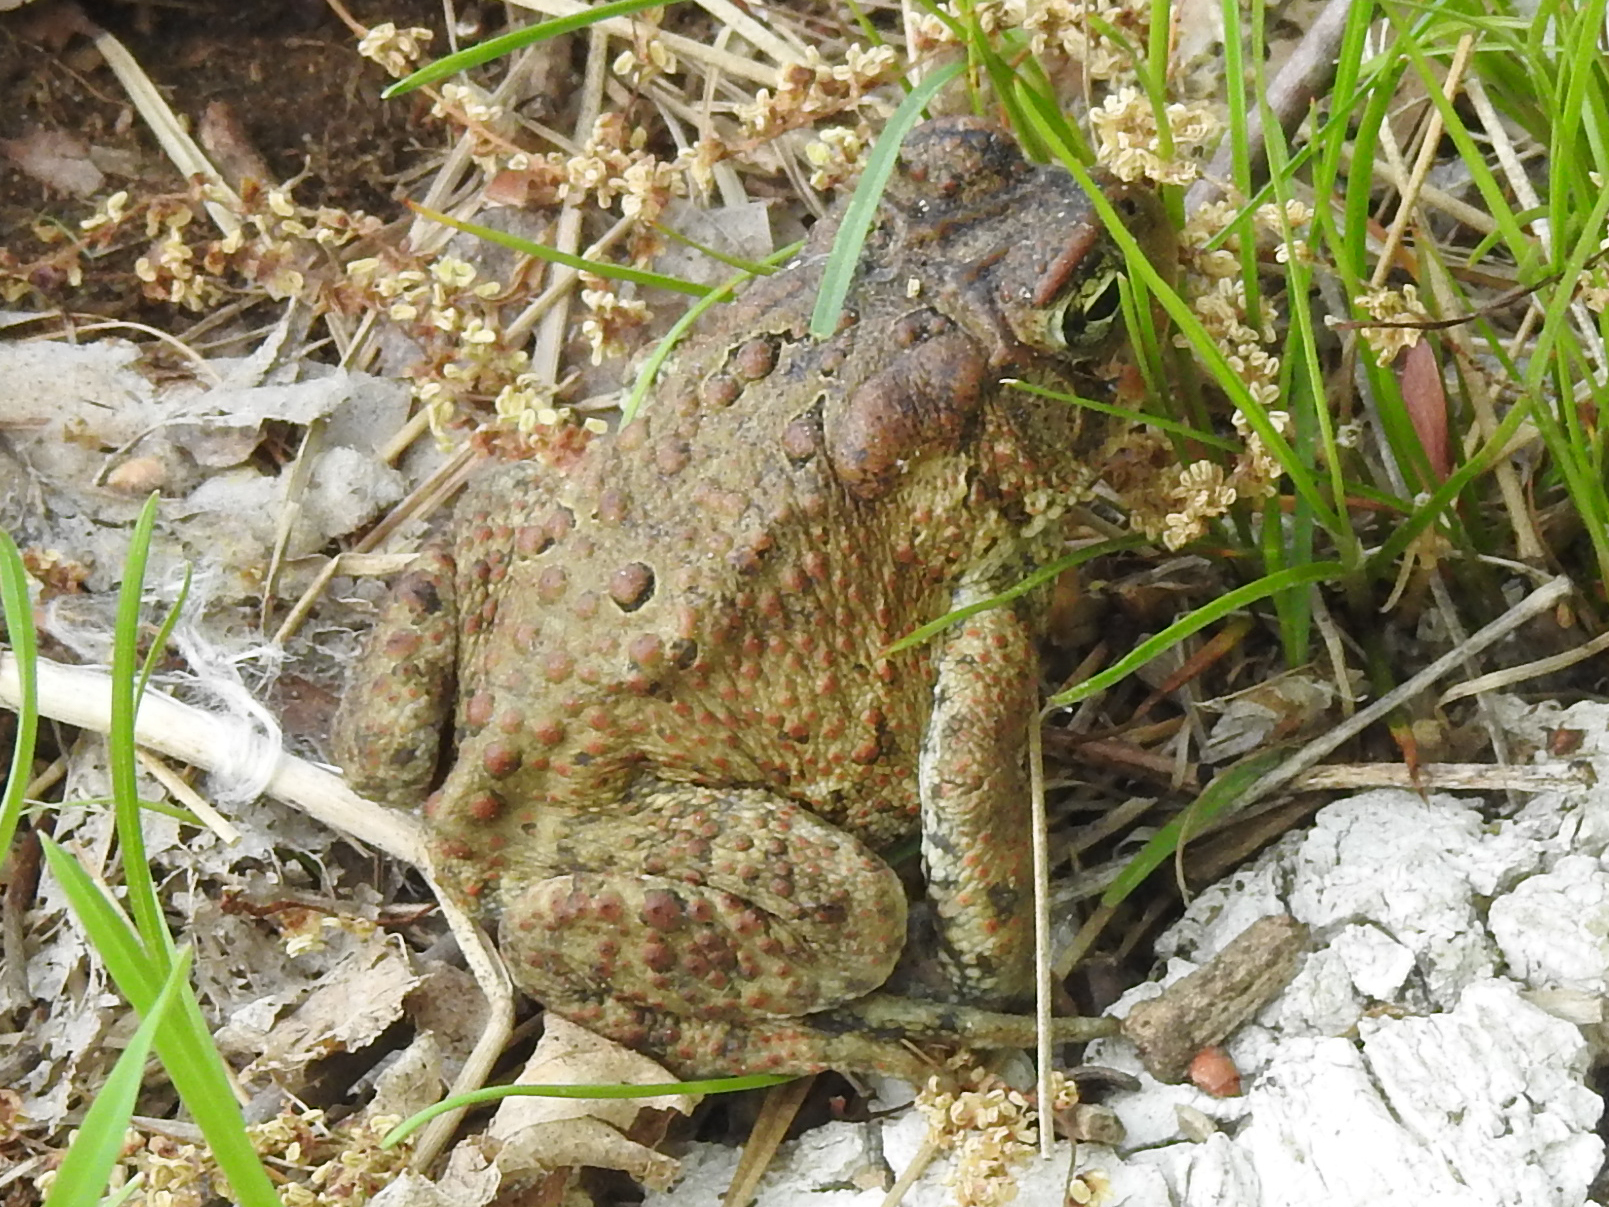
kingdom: Animalia
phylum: Chordata
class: Amphibia
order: Anura
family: Bufonidae
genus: Anaxyrus
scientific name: Anaxyrus americanus
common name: American toad
